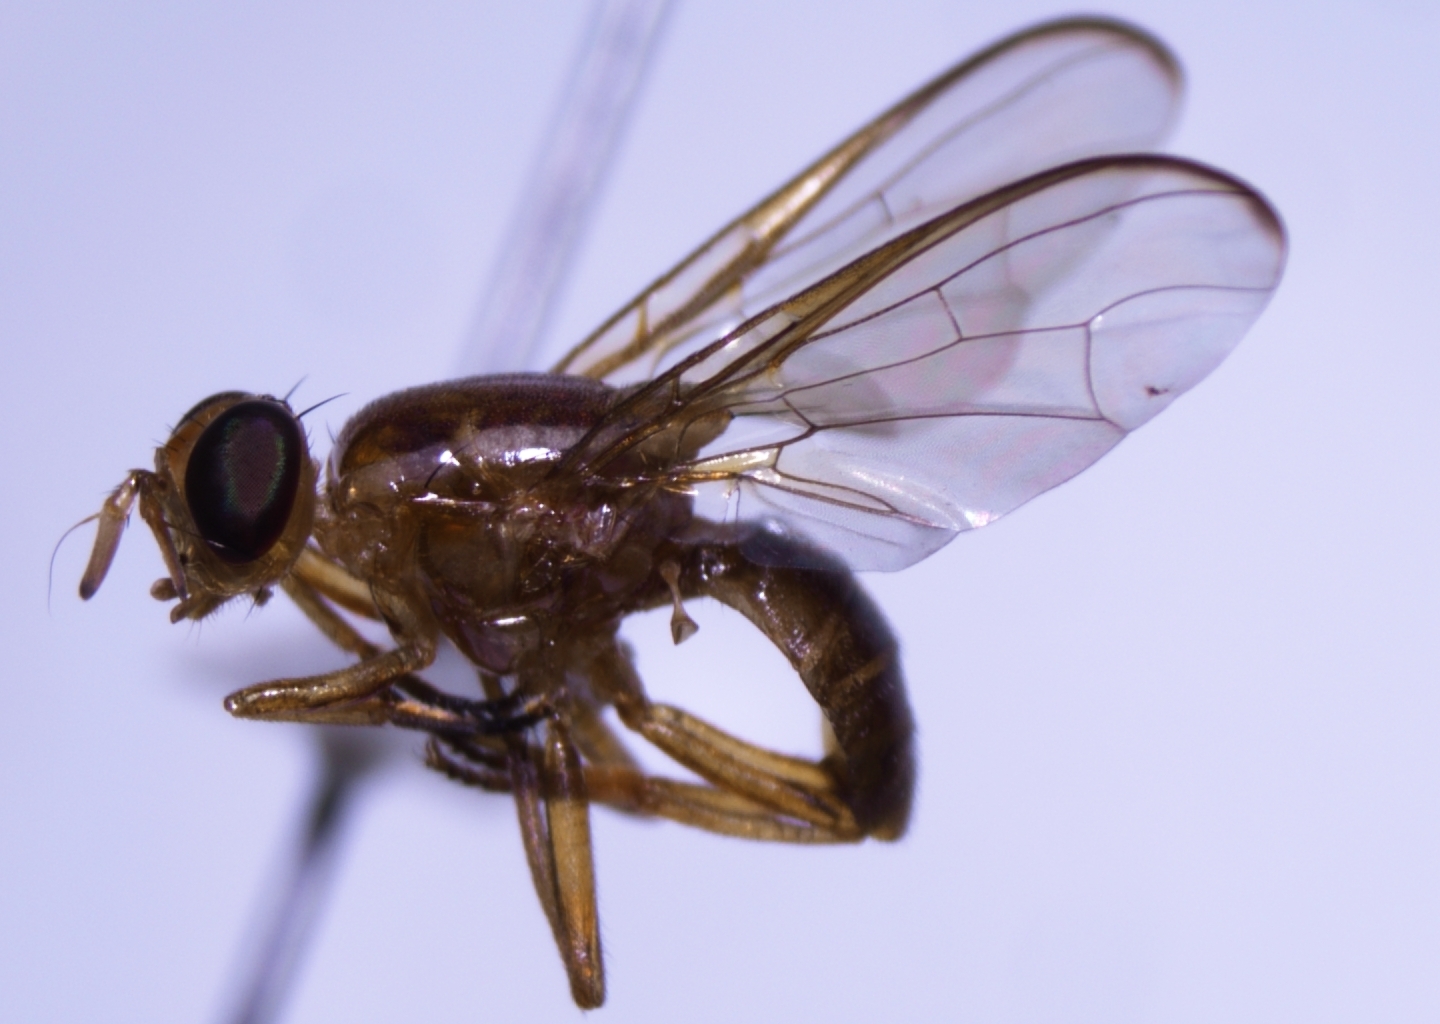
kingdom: Animalia
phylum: Arthropoda
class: Insecta
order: Diptera
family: Tephritidae
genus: Bactrocera
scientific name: Bactrocera xanthodes
